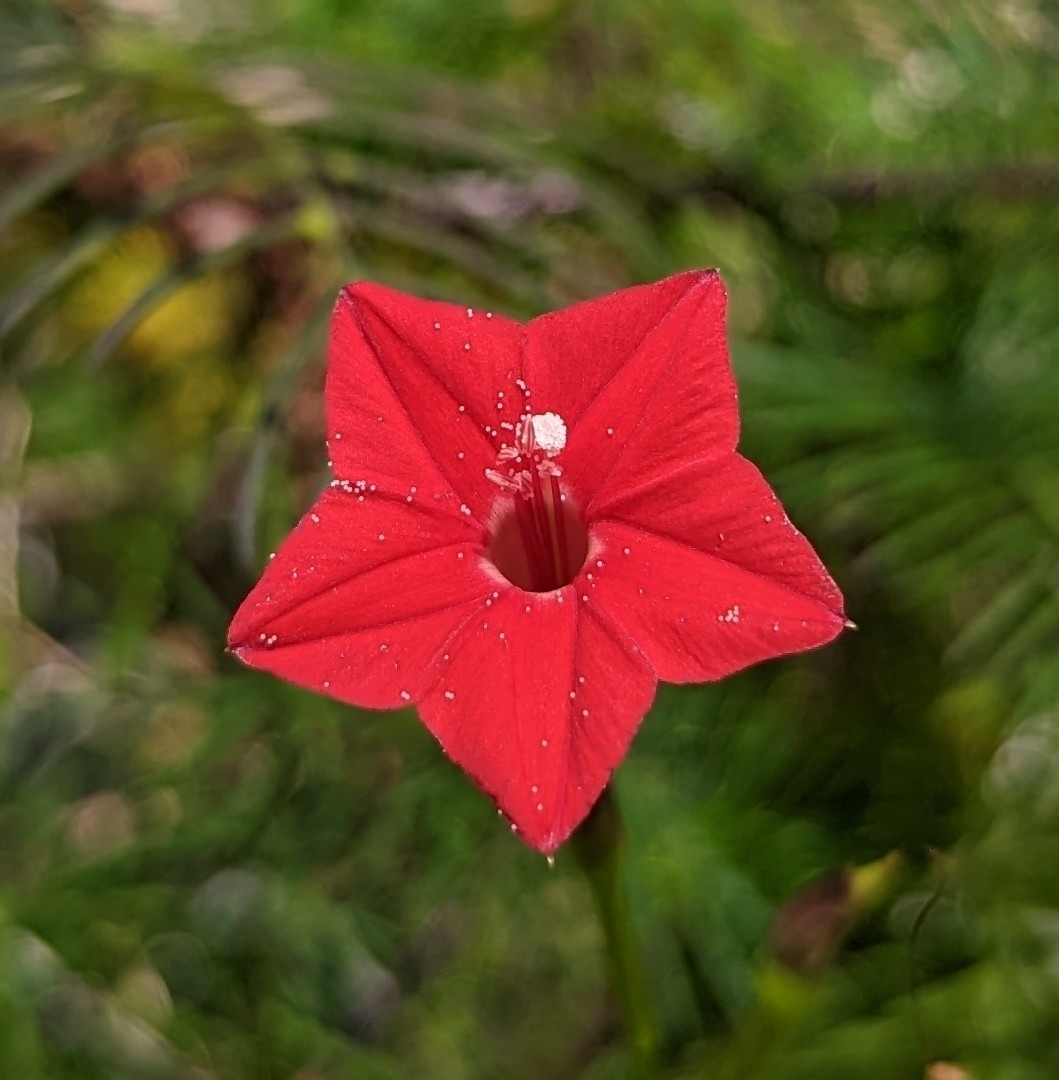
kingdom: Plantae
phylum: Tracheophyta
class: Magnoliopsida
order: Solanales
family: Convolvulaceae
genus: Ipomoea
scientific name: Ipomoea quamoclit
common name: Cypress vine
